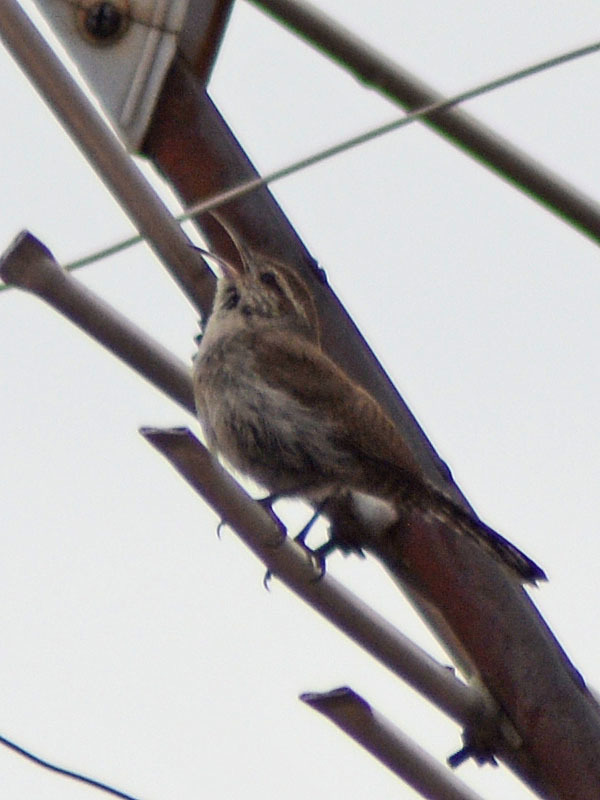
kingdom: Animalia
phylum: Chordata
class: Aves
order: Passeriformes
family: Troglodytidae
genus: Thryomanes
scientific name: Thryomanes bewickii
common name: Bewick's wren
